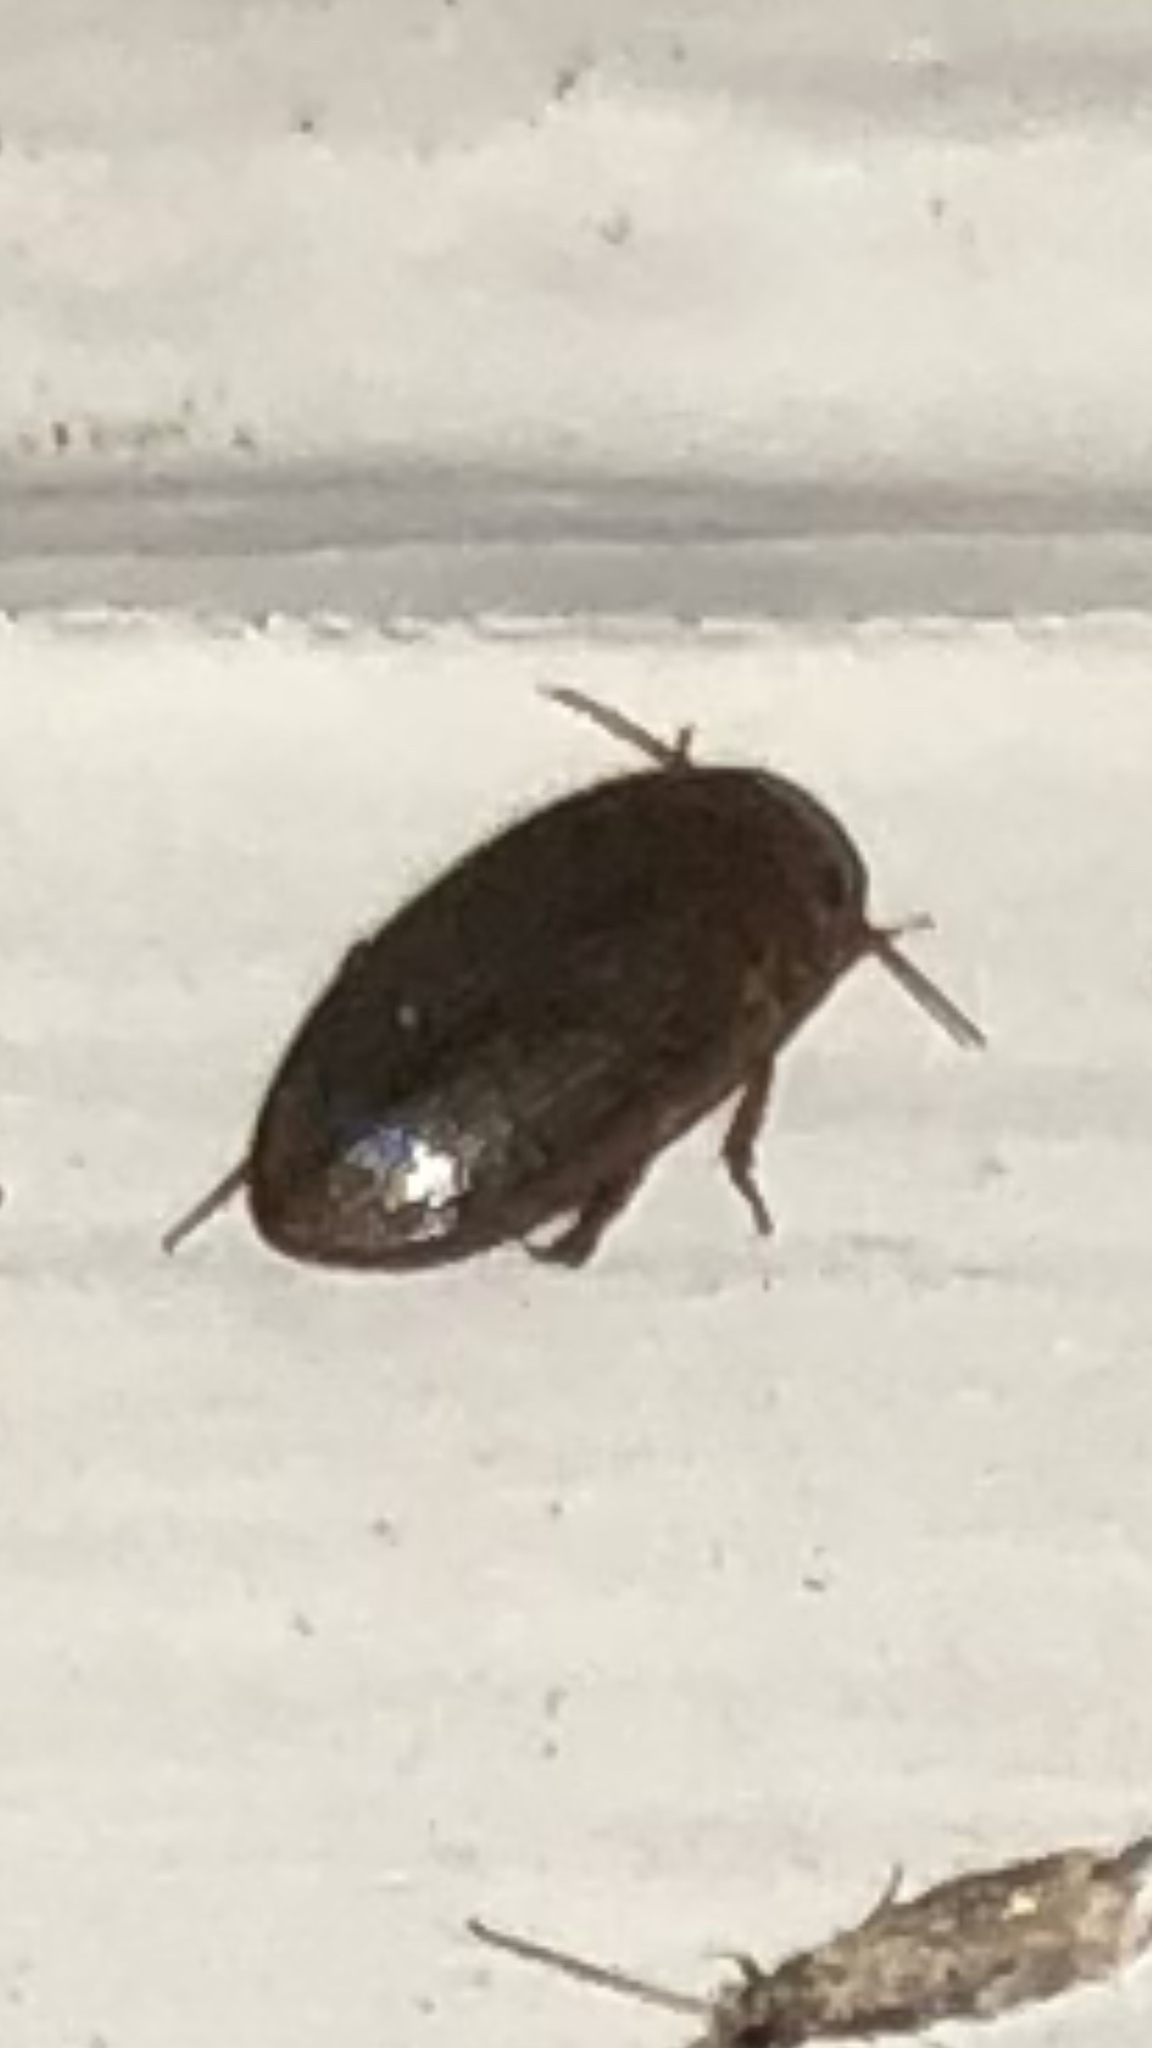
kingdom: Animalia
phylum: Arthropoda
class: Insecta
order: Coleoptera
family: Dytiscidae
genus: Copelatus
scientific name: Copelatus
